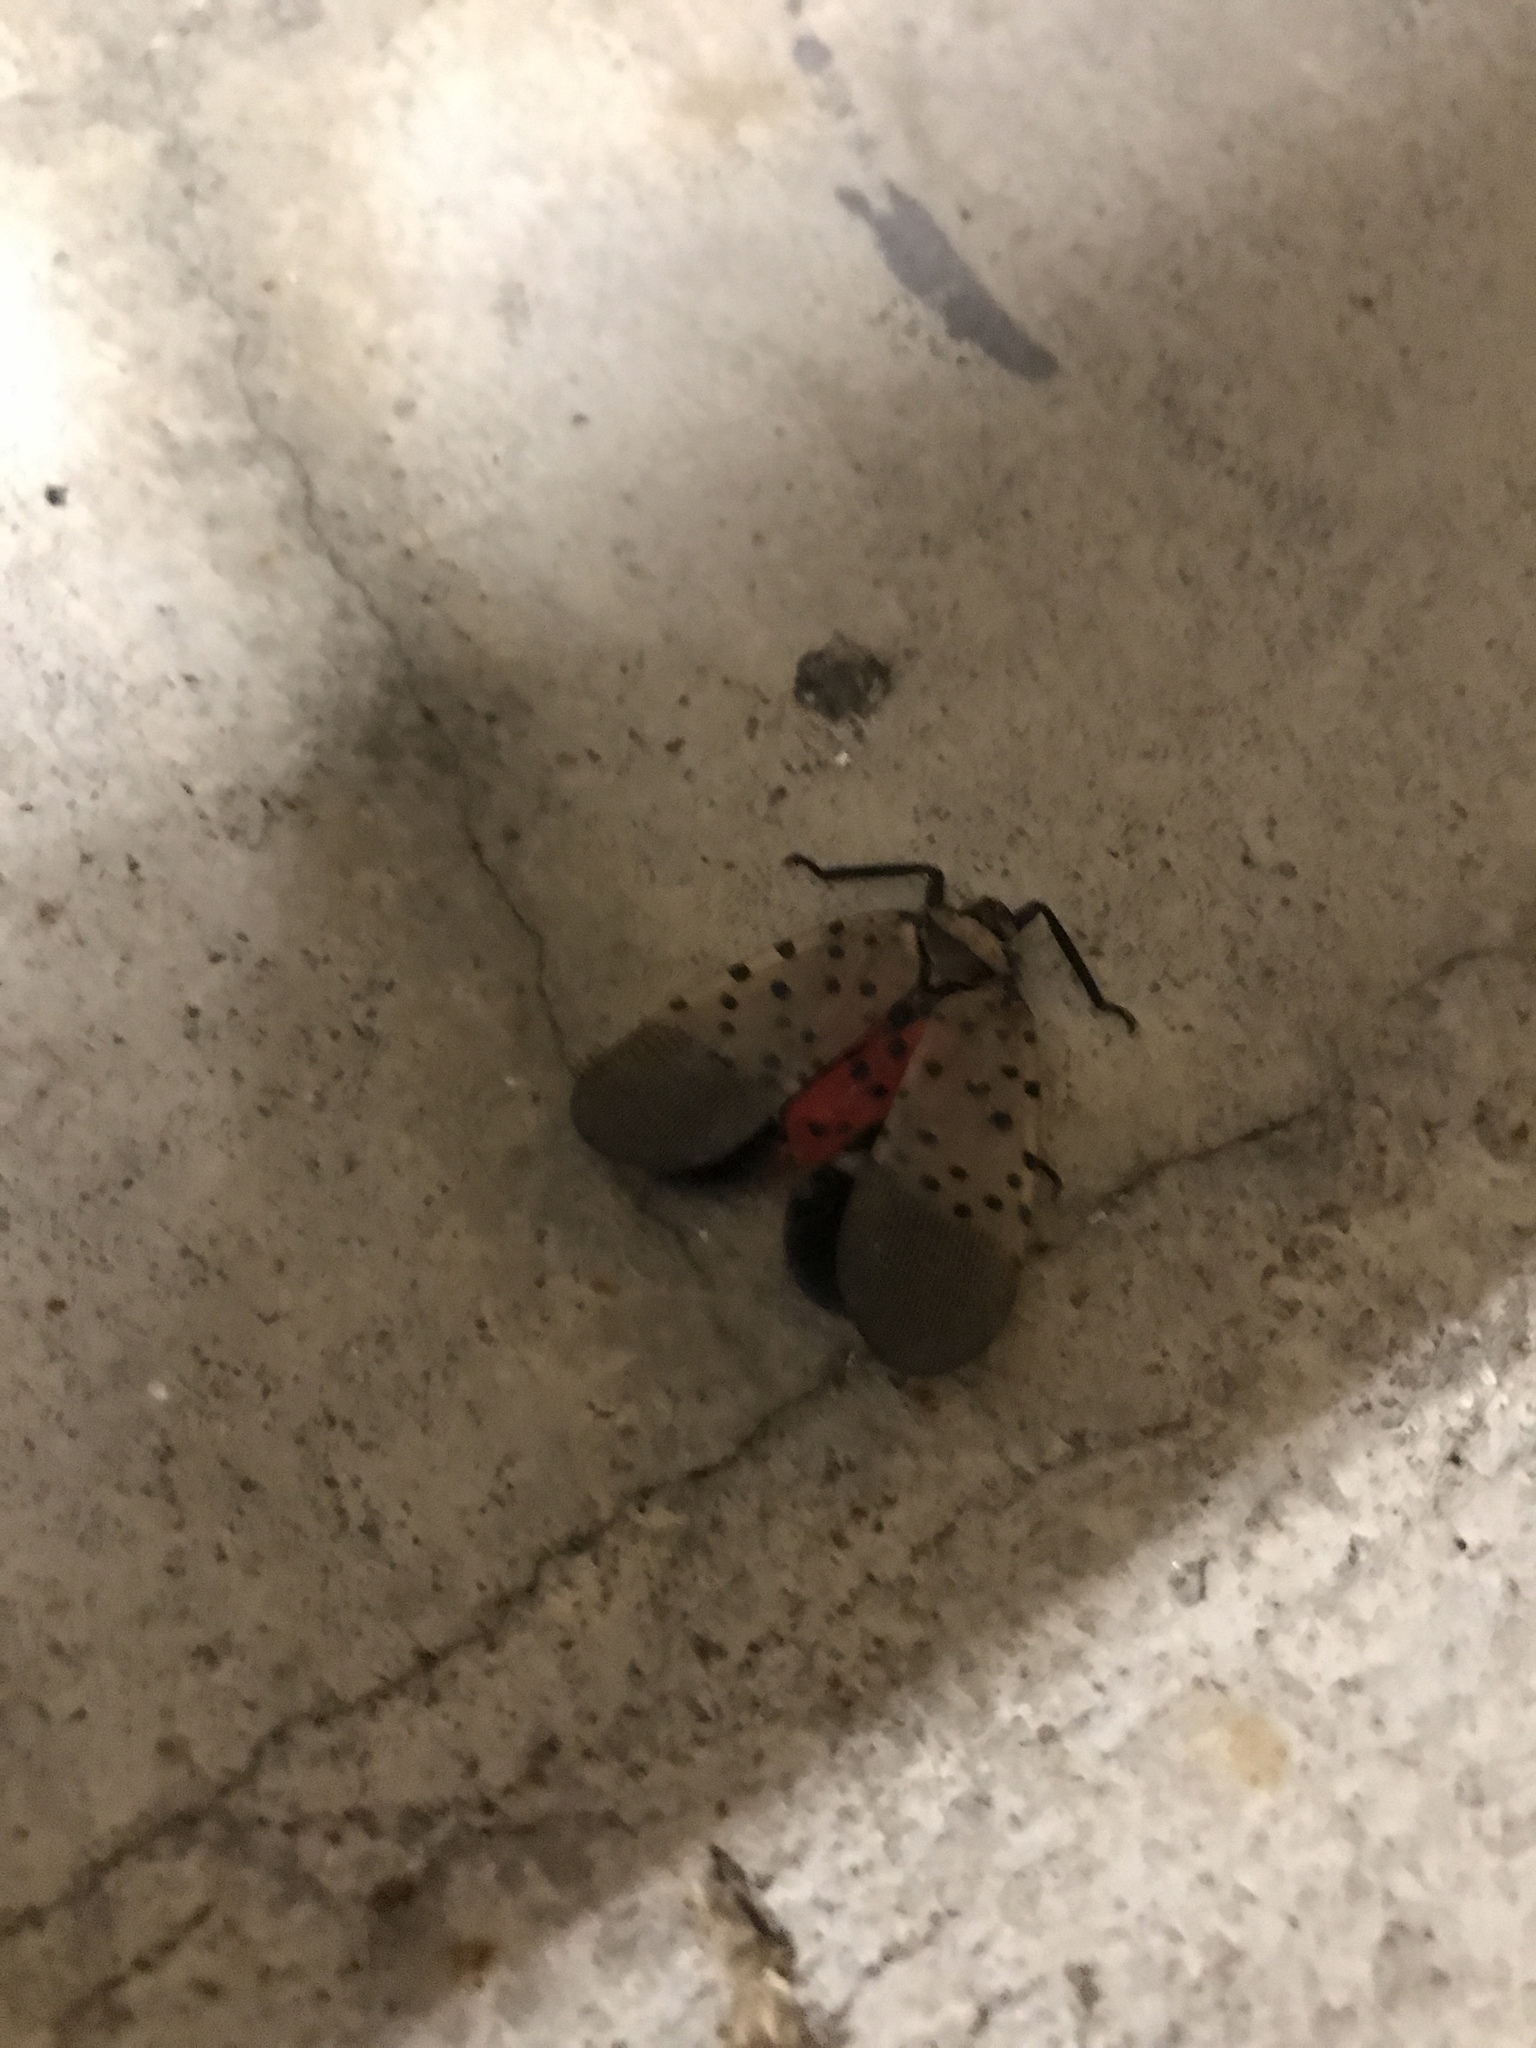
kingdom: Animalia
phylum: Arthropoda
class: Insecta
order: Hemiptera
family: Fulgoridae
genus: Lycorma
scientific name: Lycorma delicatula
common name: Spotted lanternfly
